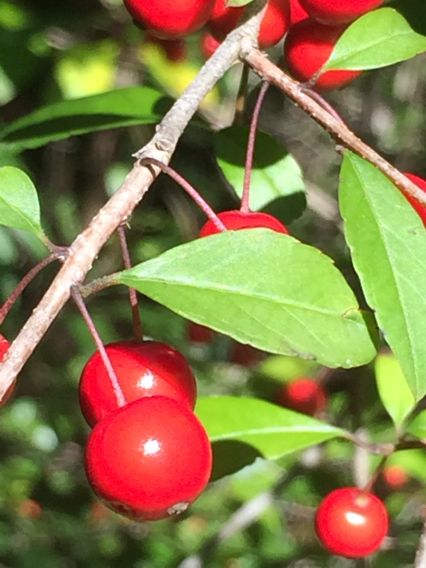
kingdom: Plantae
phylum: Tracheophyta
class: Magnoliopsida
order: Aquifoliales
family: Aquifoliaceae
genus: Ilex
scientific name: Ilex longipes
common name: Georgia holly
